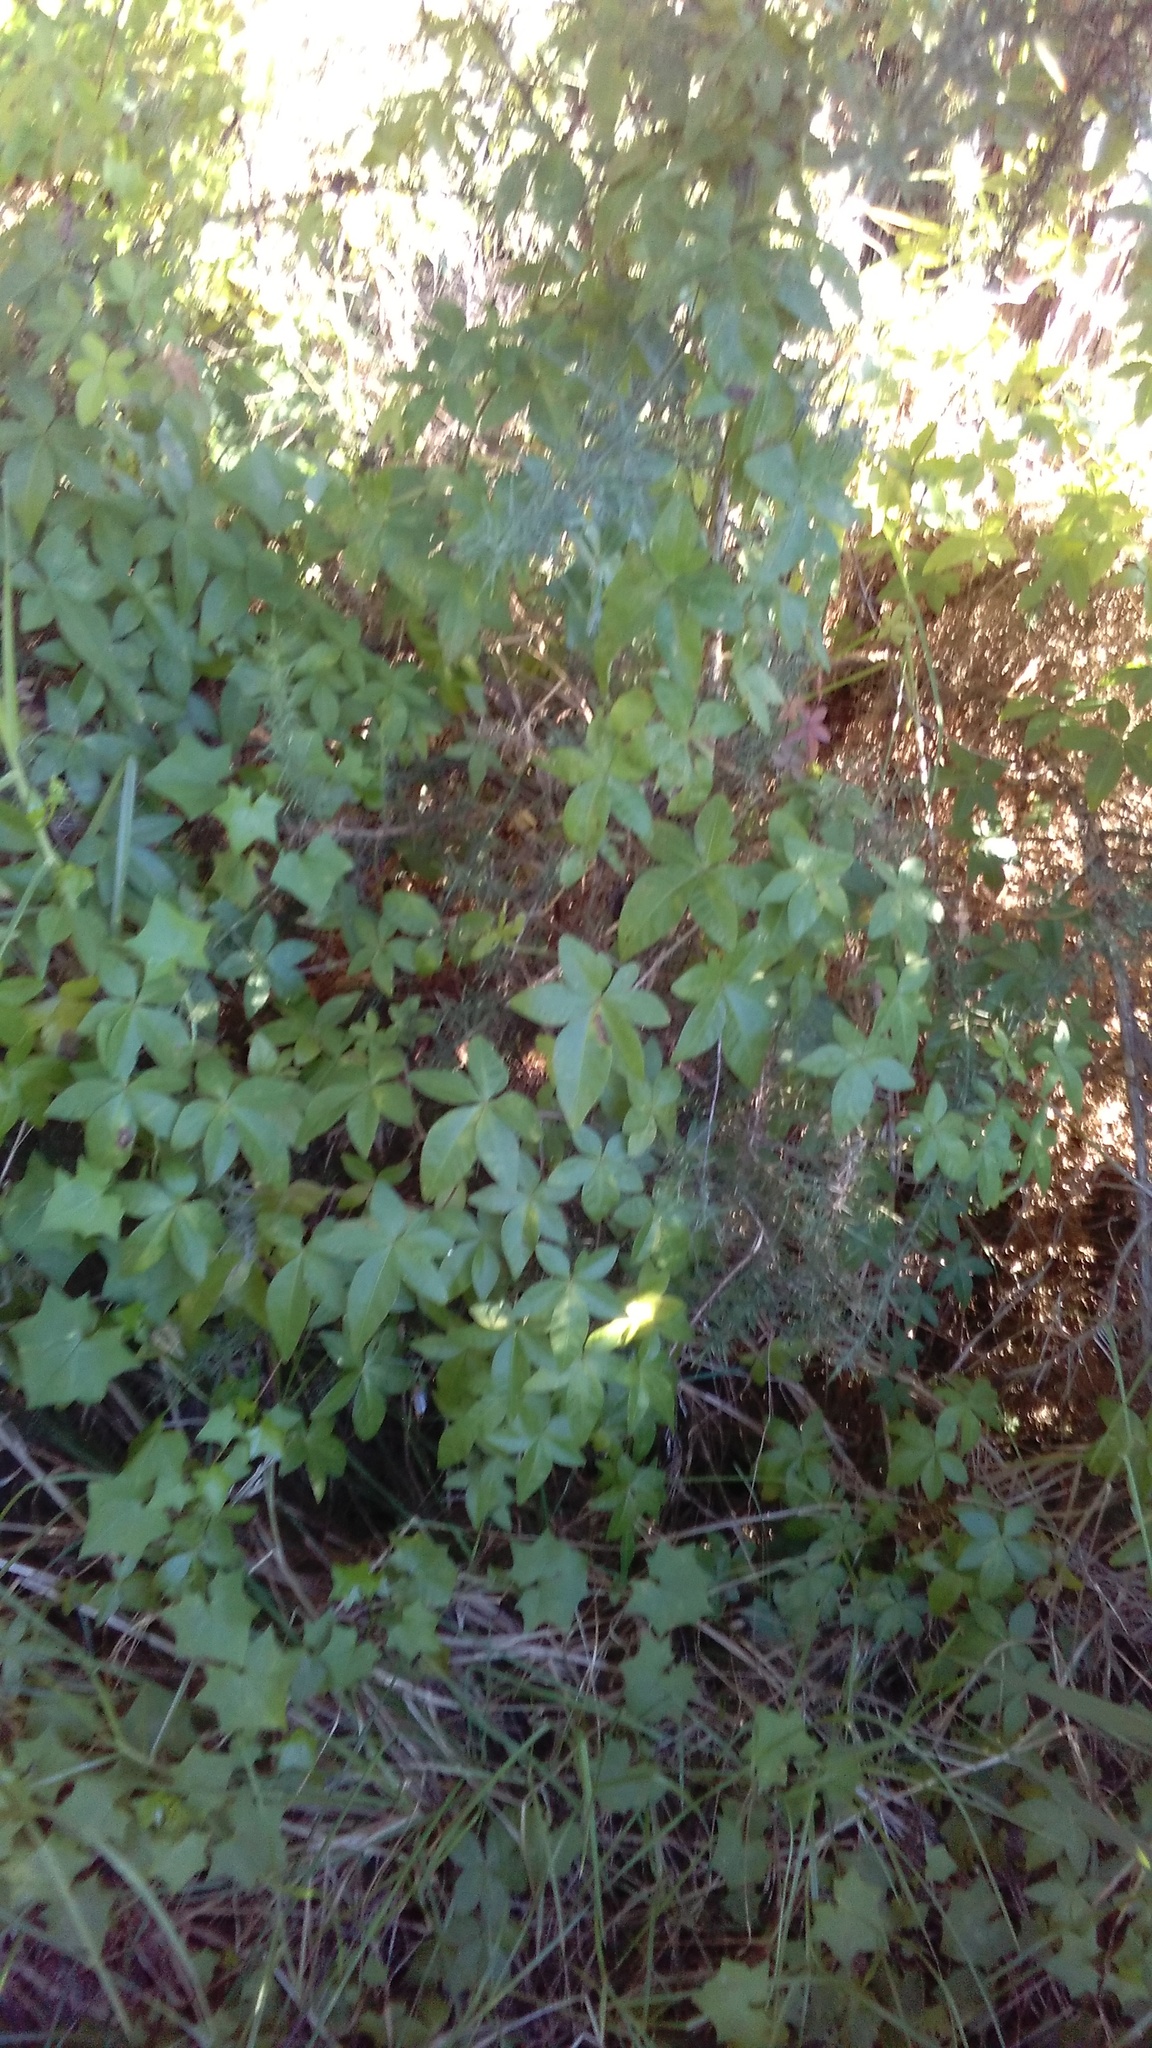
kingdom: Plantae
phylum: Tracheophyta
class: Magnoliopsida
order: Solanales
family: Convolvulaceae
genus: Ipomoea
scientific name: Ipomoea cairica
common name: Mile a minute vine
